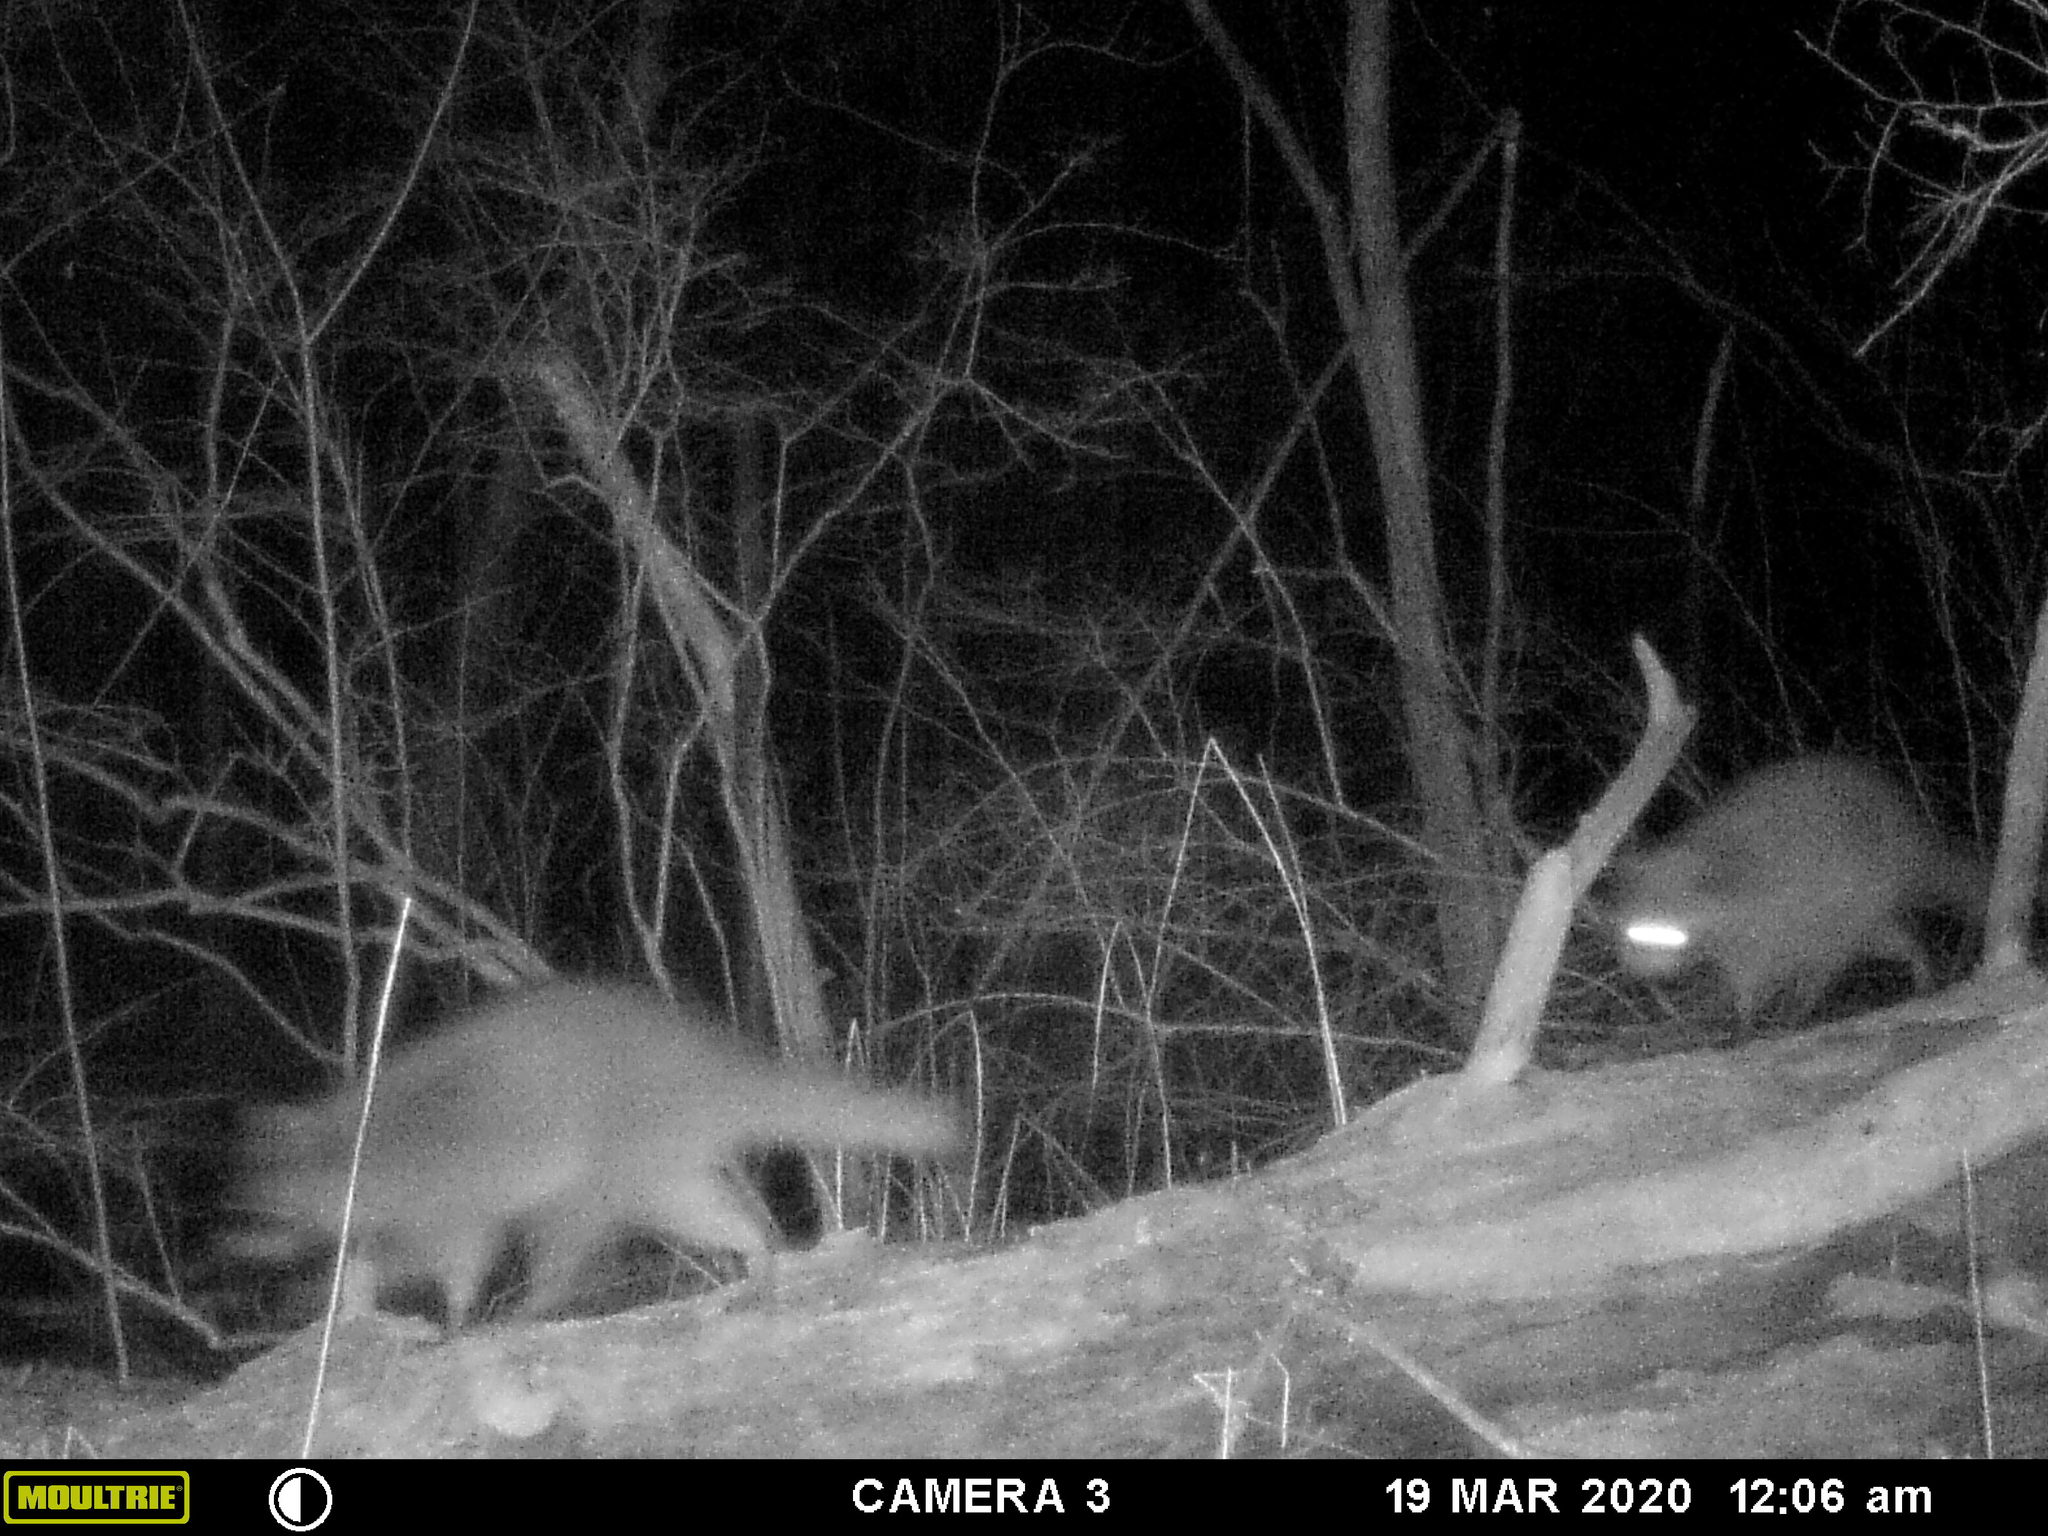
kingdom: Animalia
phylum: Chordata
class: Mammalia
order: Carnivora
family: Procyonidae
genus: Procyon
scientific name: Procyon lotor
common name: Raccoon
